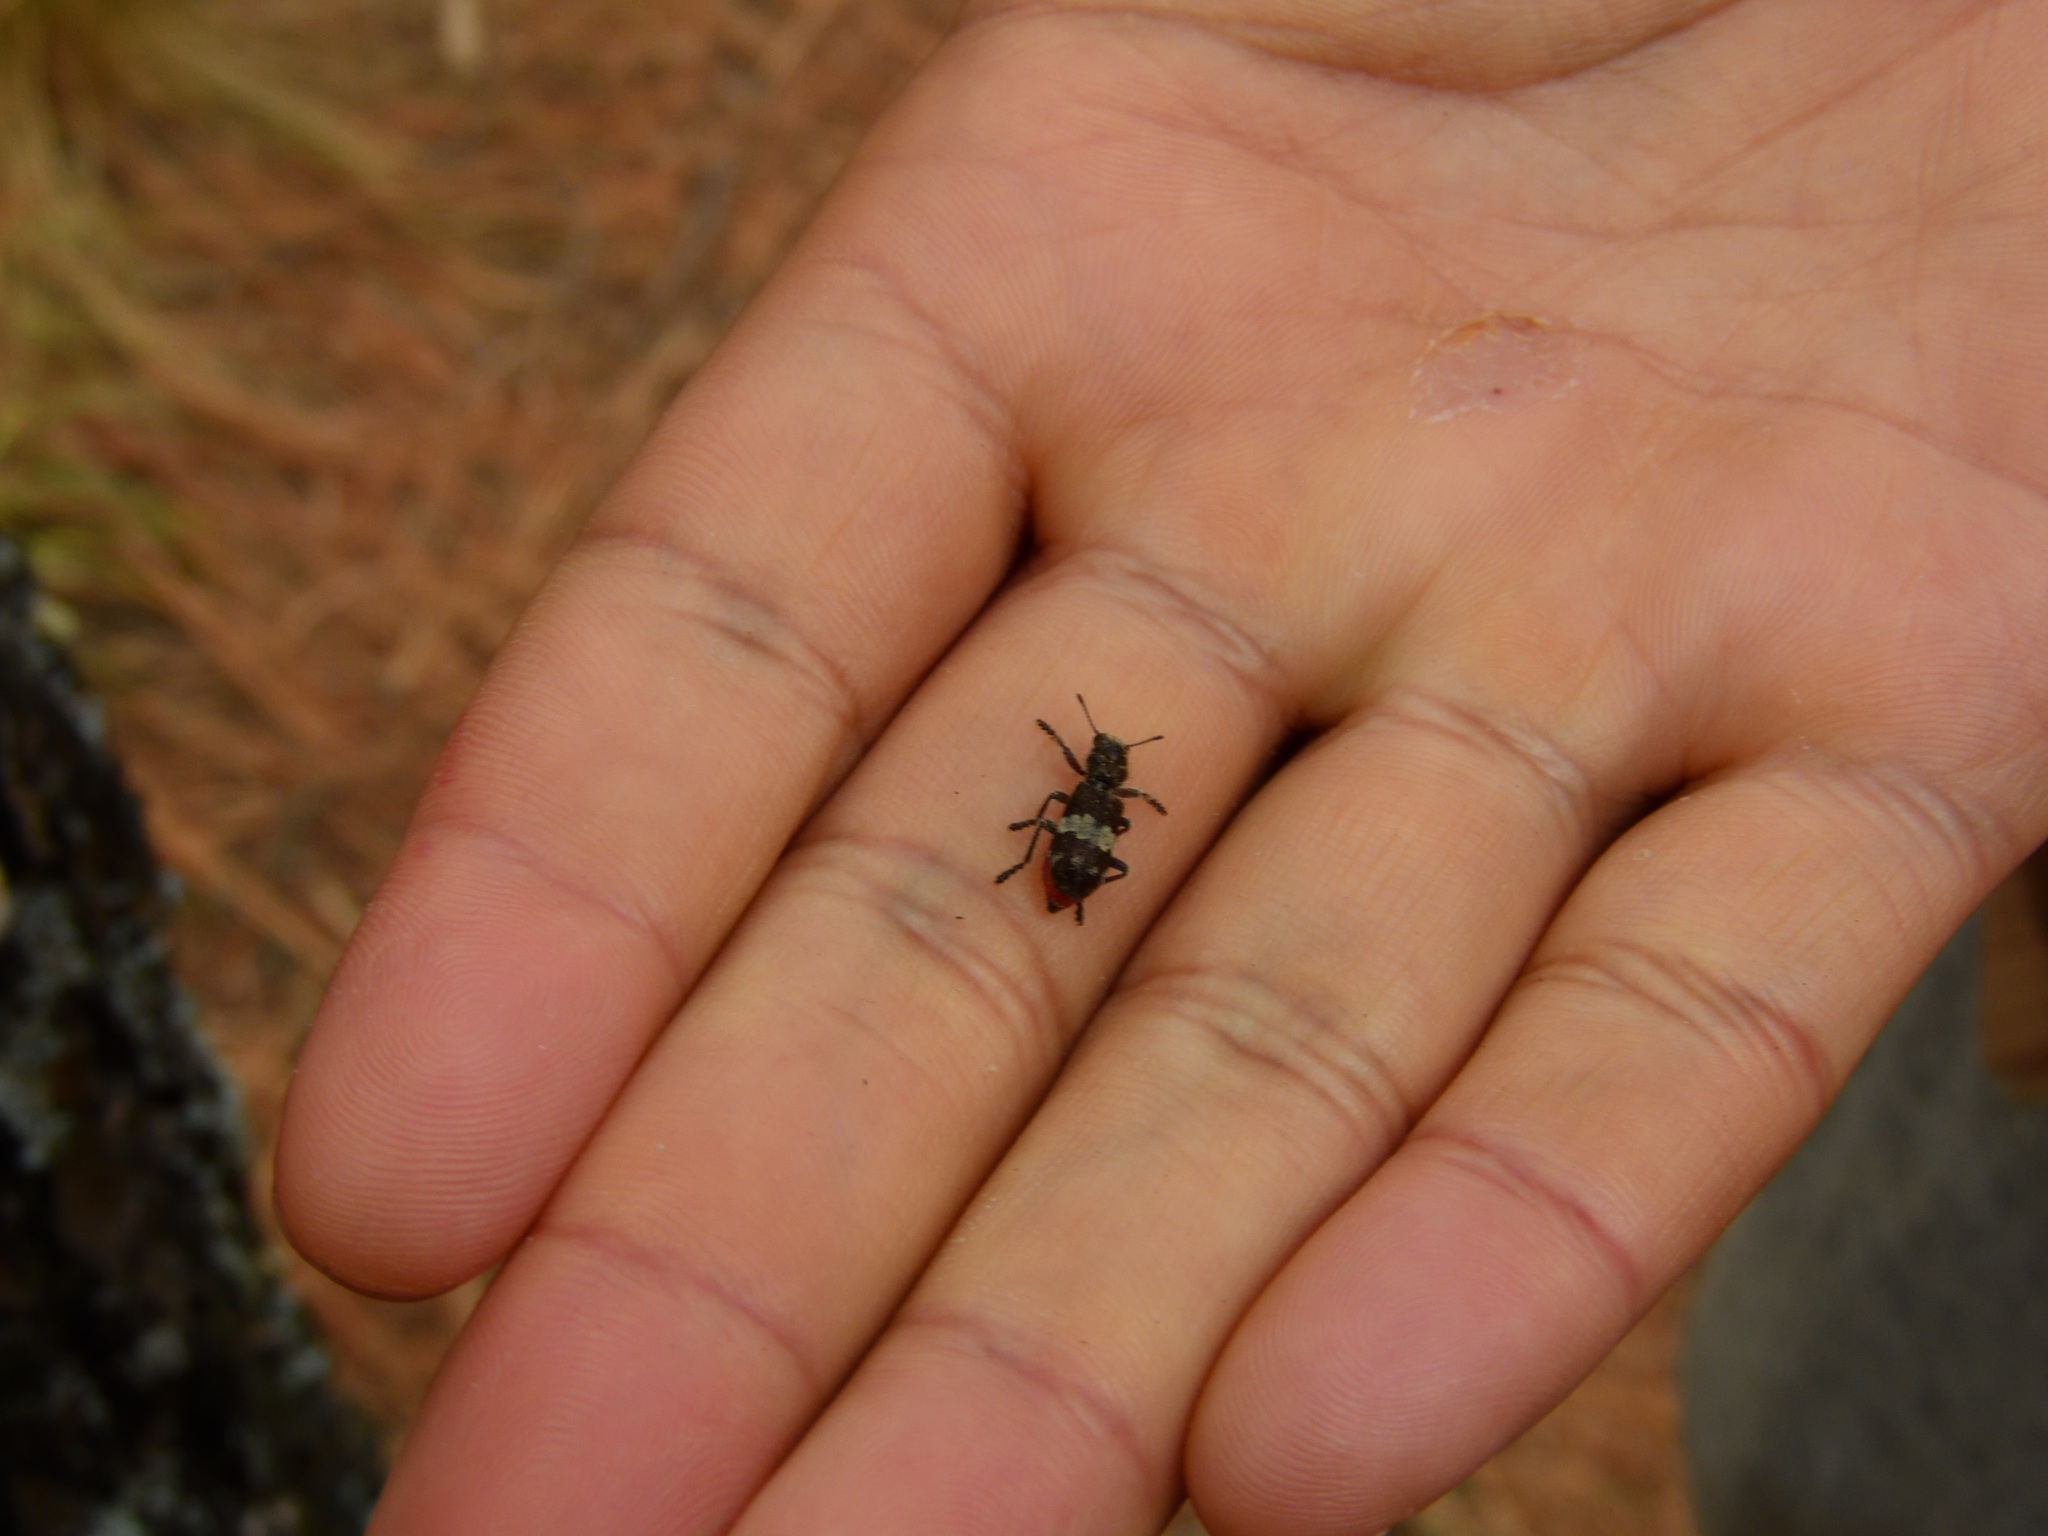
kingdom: Animalia
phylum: Arthropoda
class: Insecta
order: Coleoptera
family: Cleridae
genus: Enoclerus
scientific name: Enoclerus sphegeus
